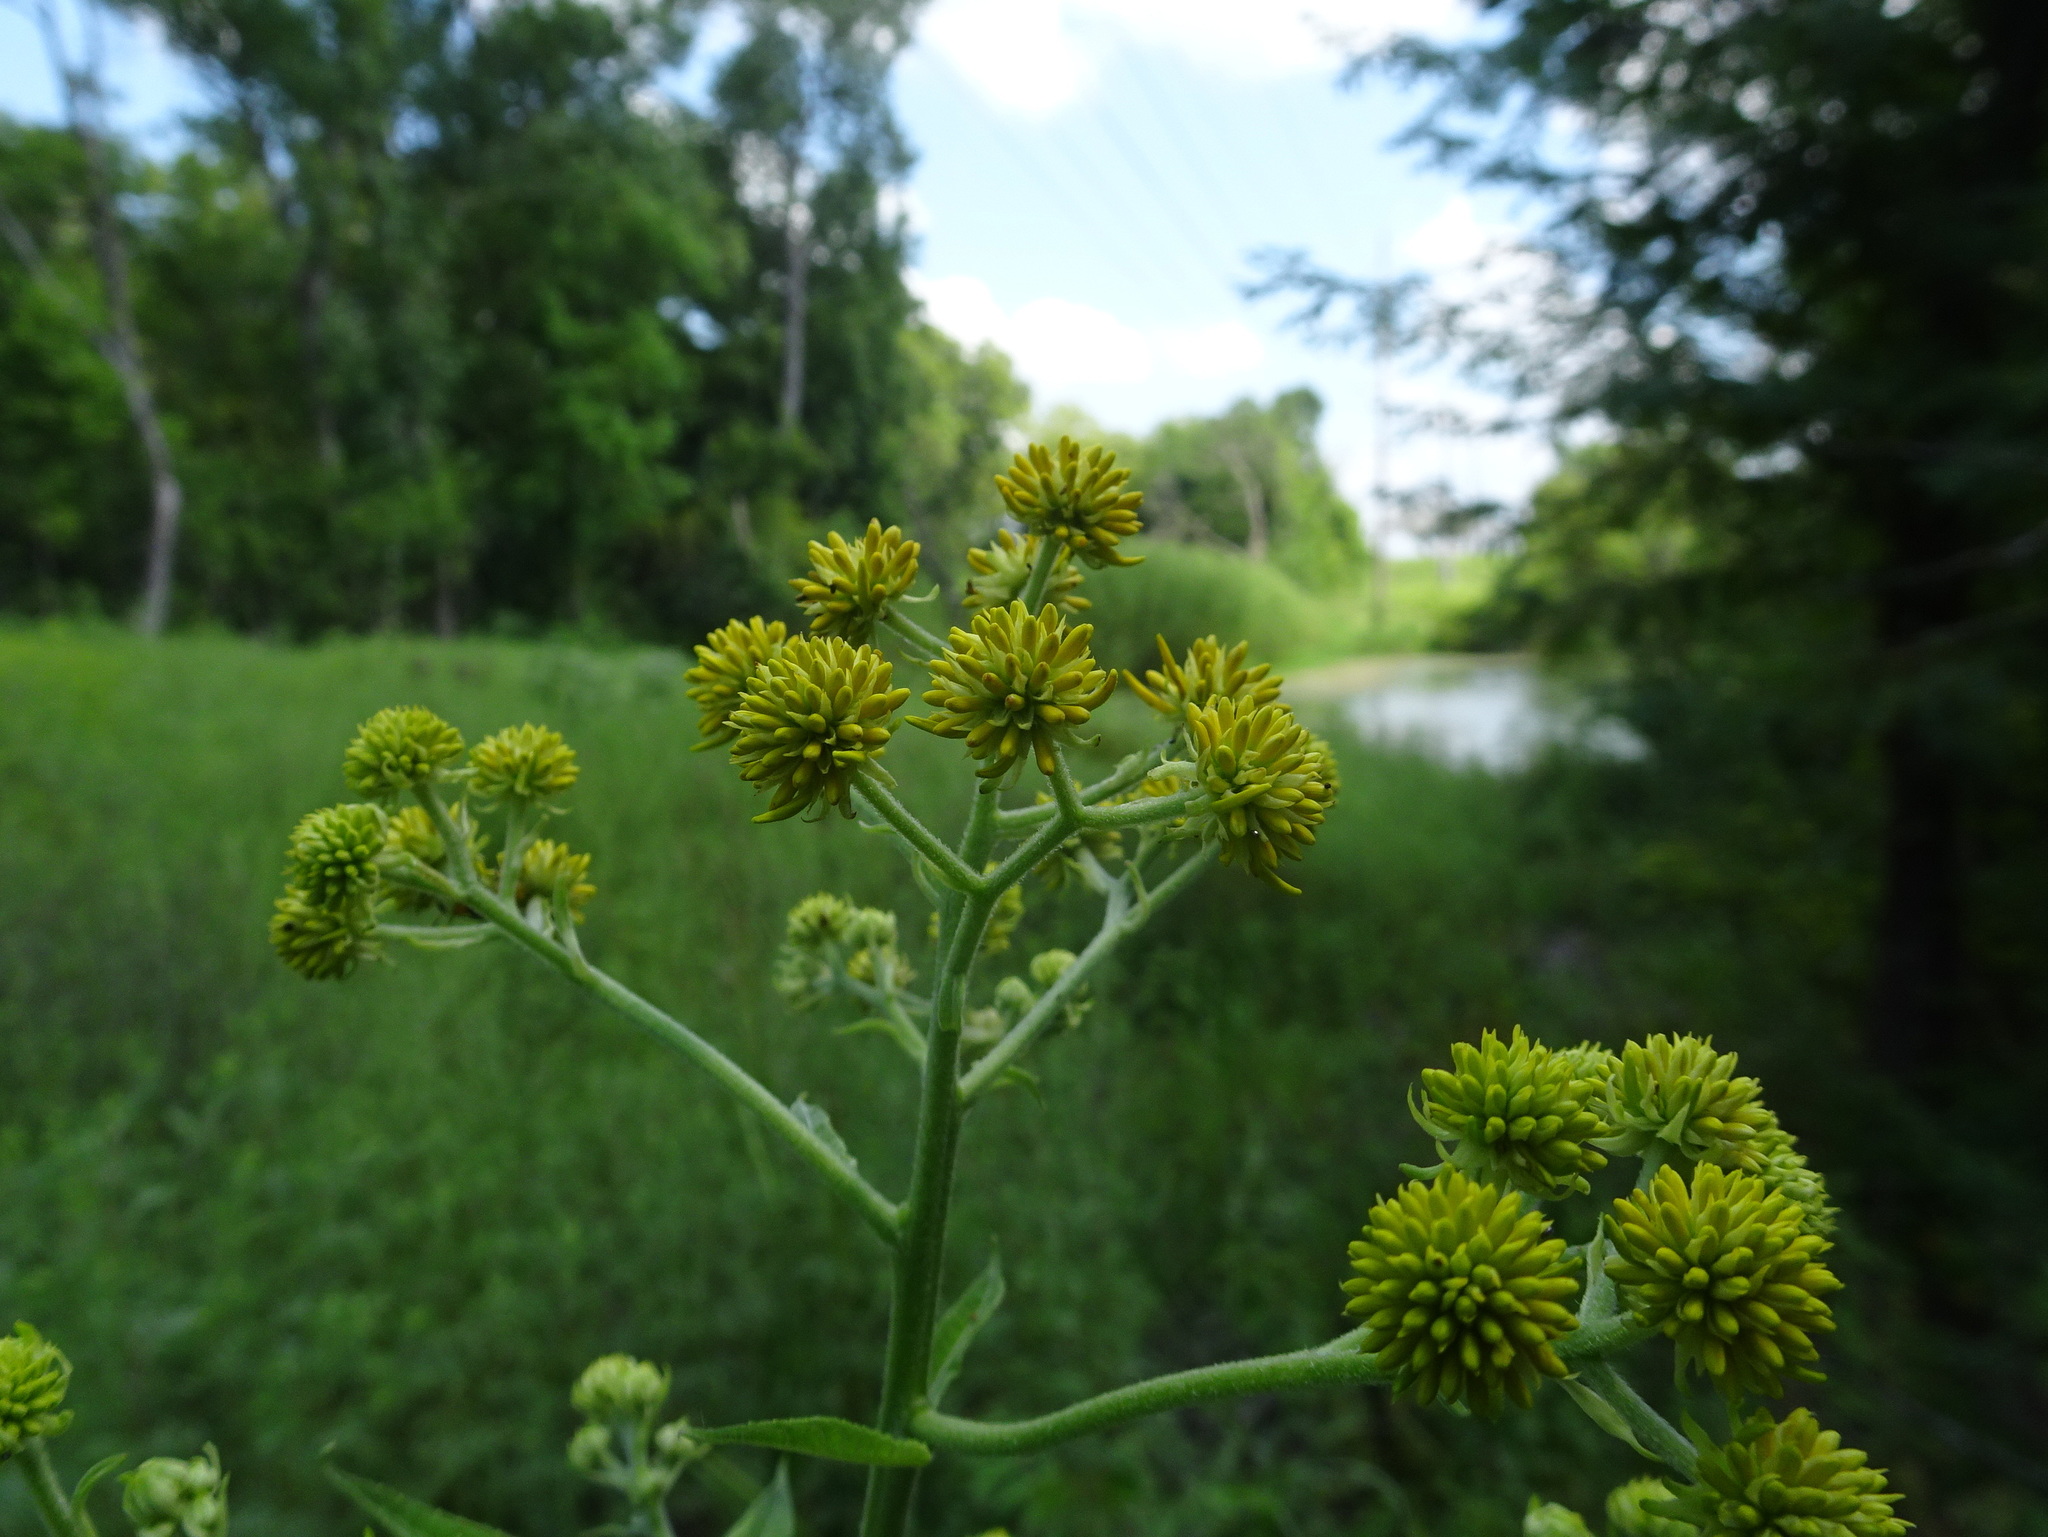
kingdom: Plantae
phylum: Tracheophyta
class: Magnoliopsida
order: Asterales
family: Asteraceae
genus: Verbesina
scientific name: Verbesina alternifolia
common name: Wingstem
